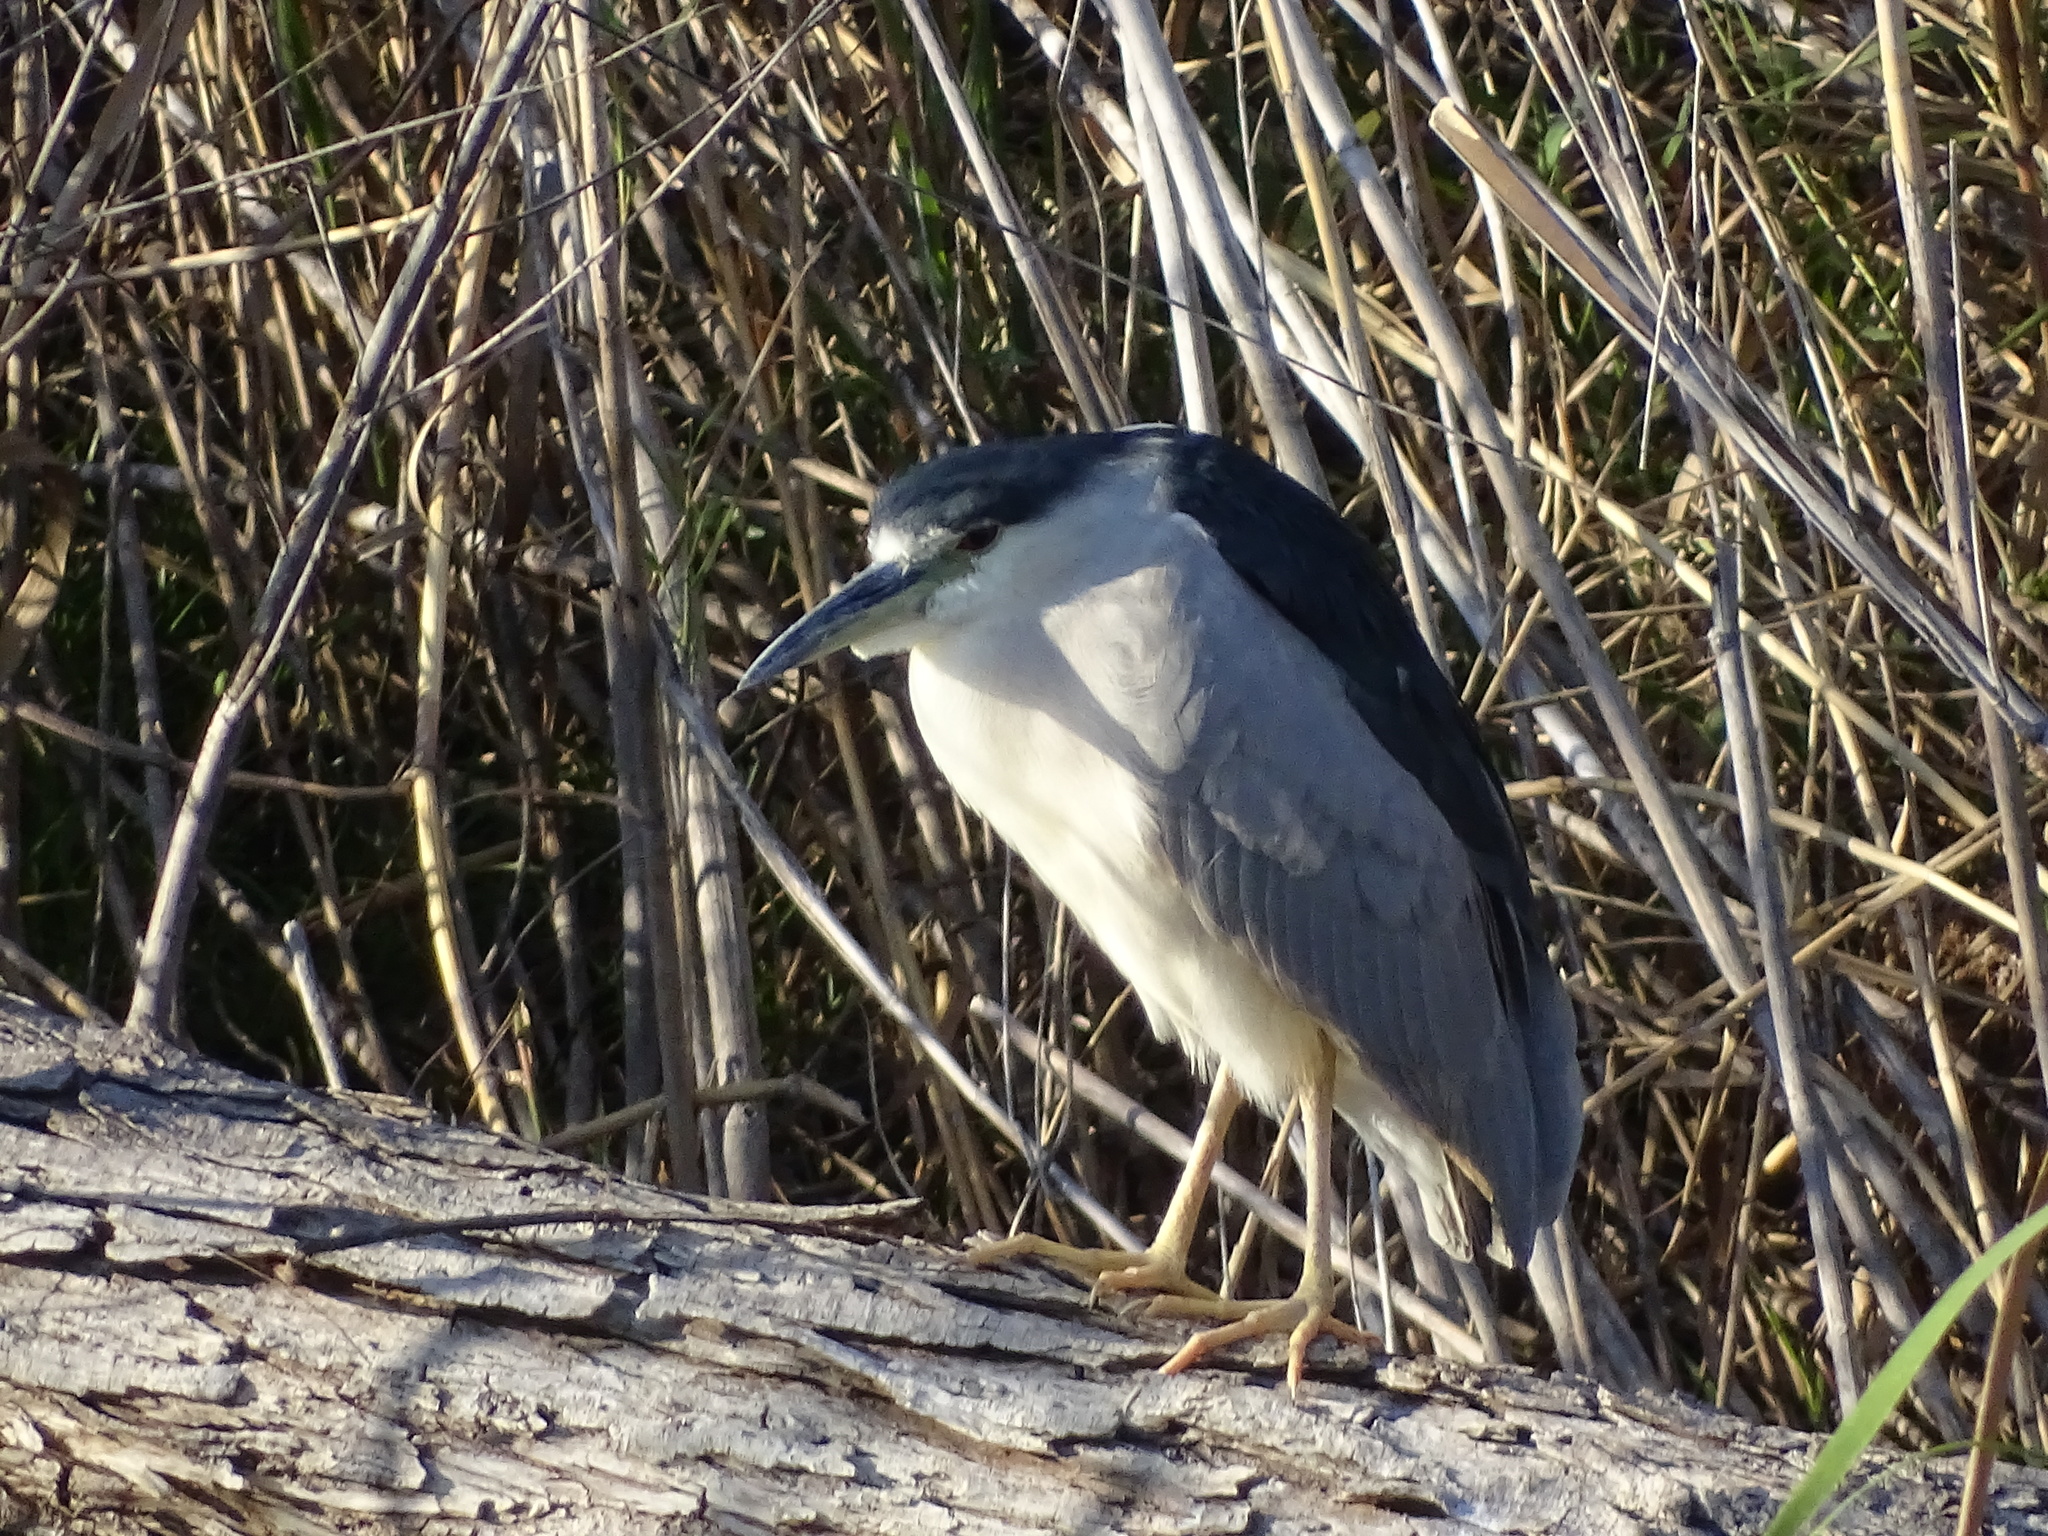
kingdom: Animalia
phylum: Chordata
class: Aves
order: Pelecaniformes
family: Ardeidae
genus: Nycticorax
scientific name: Nycticorax nycticorax
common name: Black-crowned night heron
